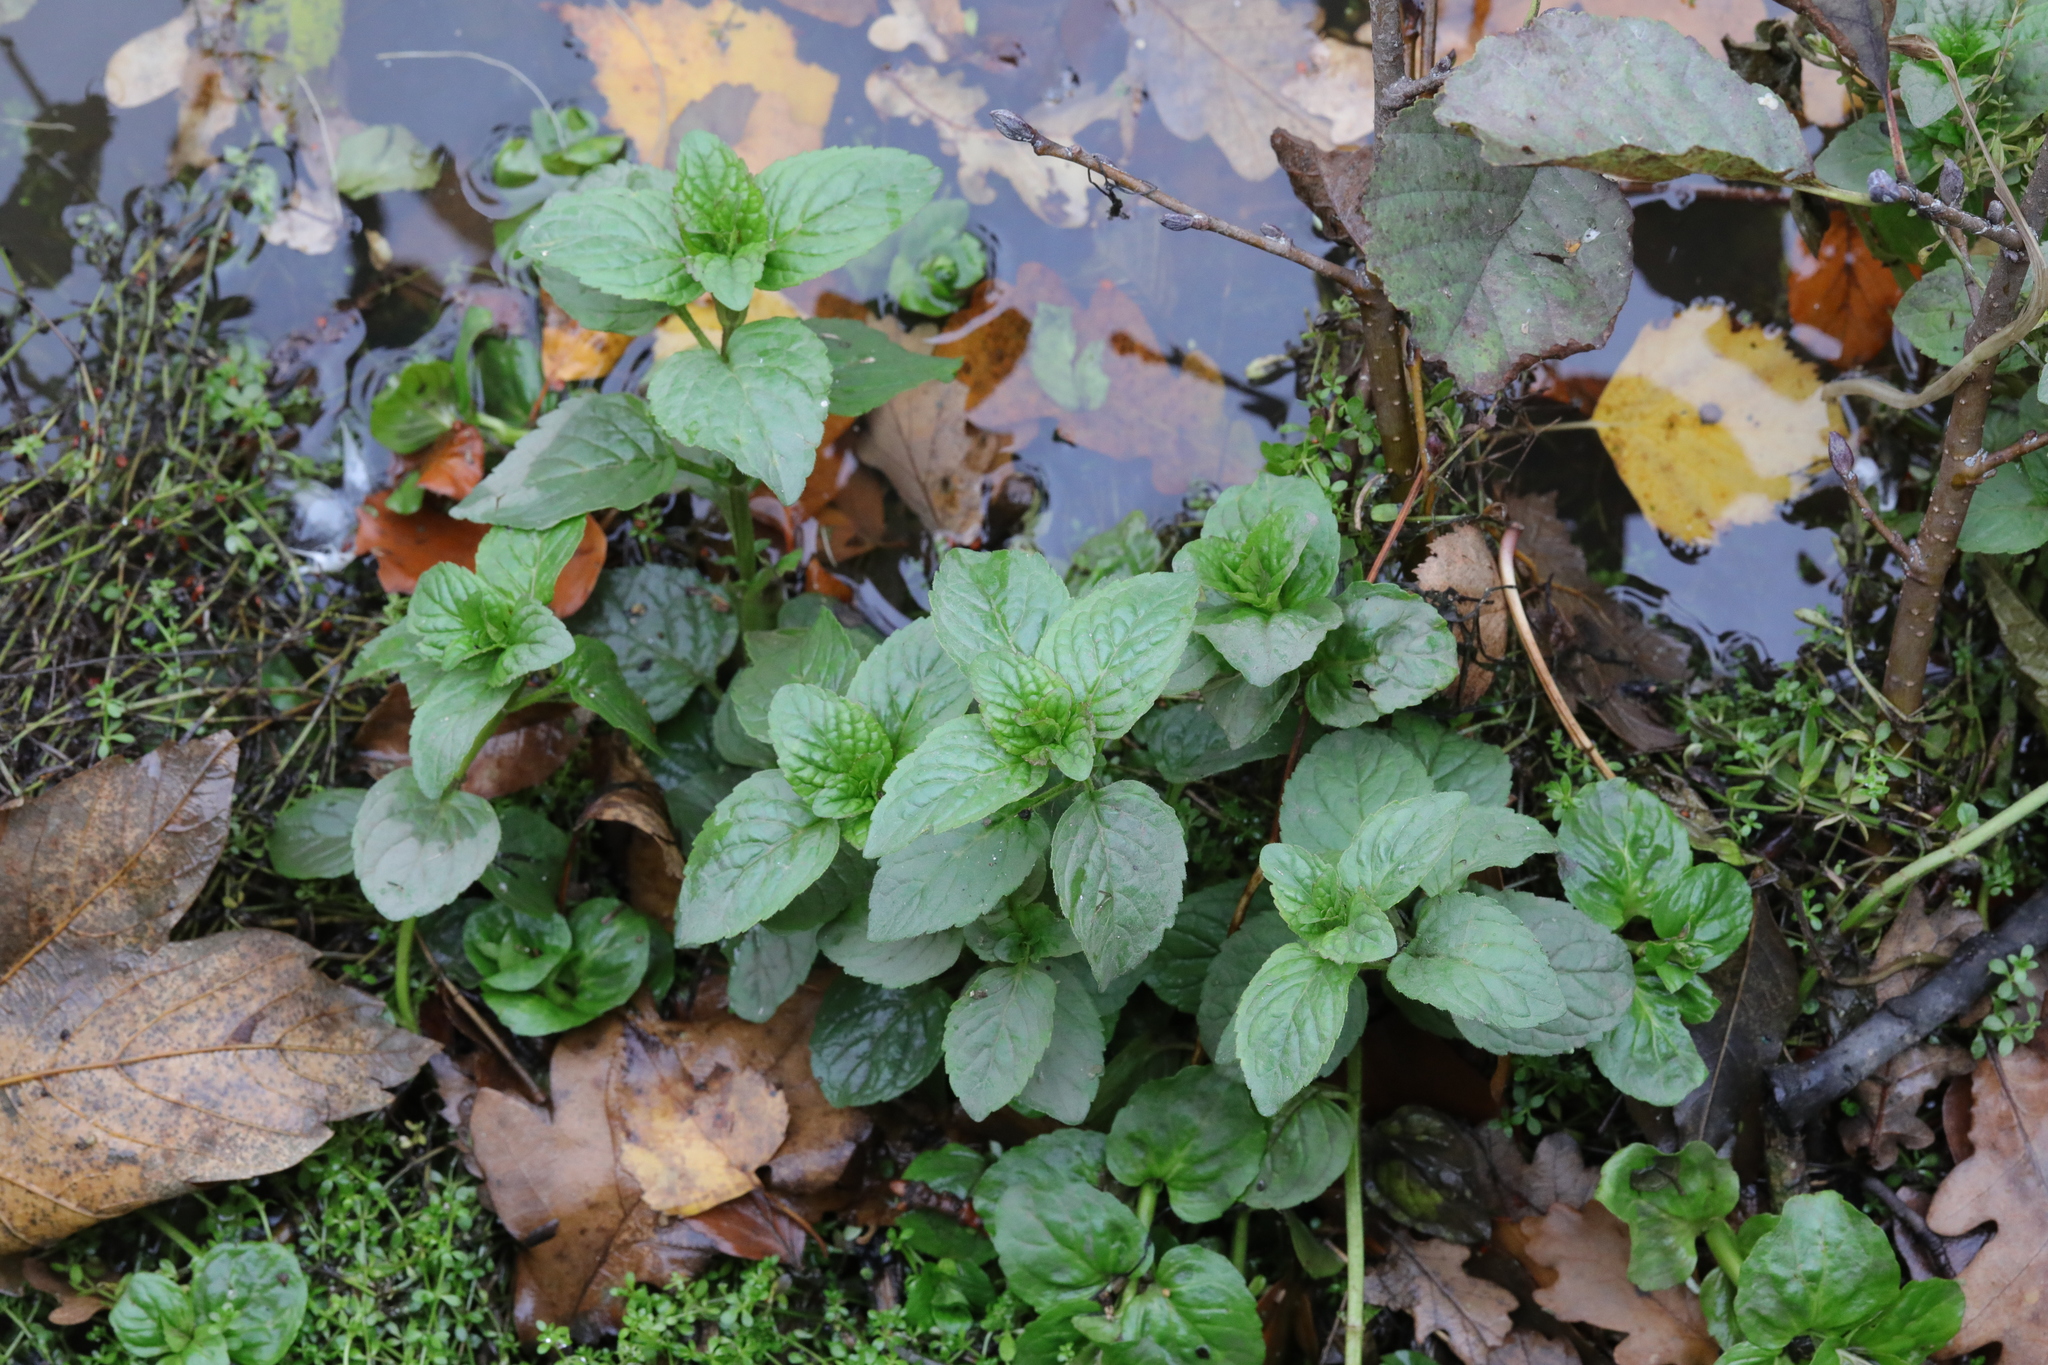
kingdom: Plantae
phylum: Tracheophyta
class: Magnoliopsida
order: Lamiales
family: Lamiaceae
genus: Mentha
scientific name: Mentha aquatica
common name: Water mint
